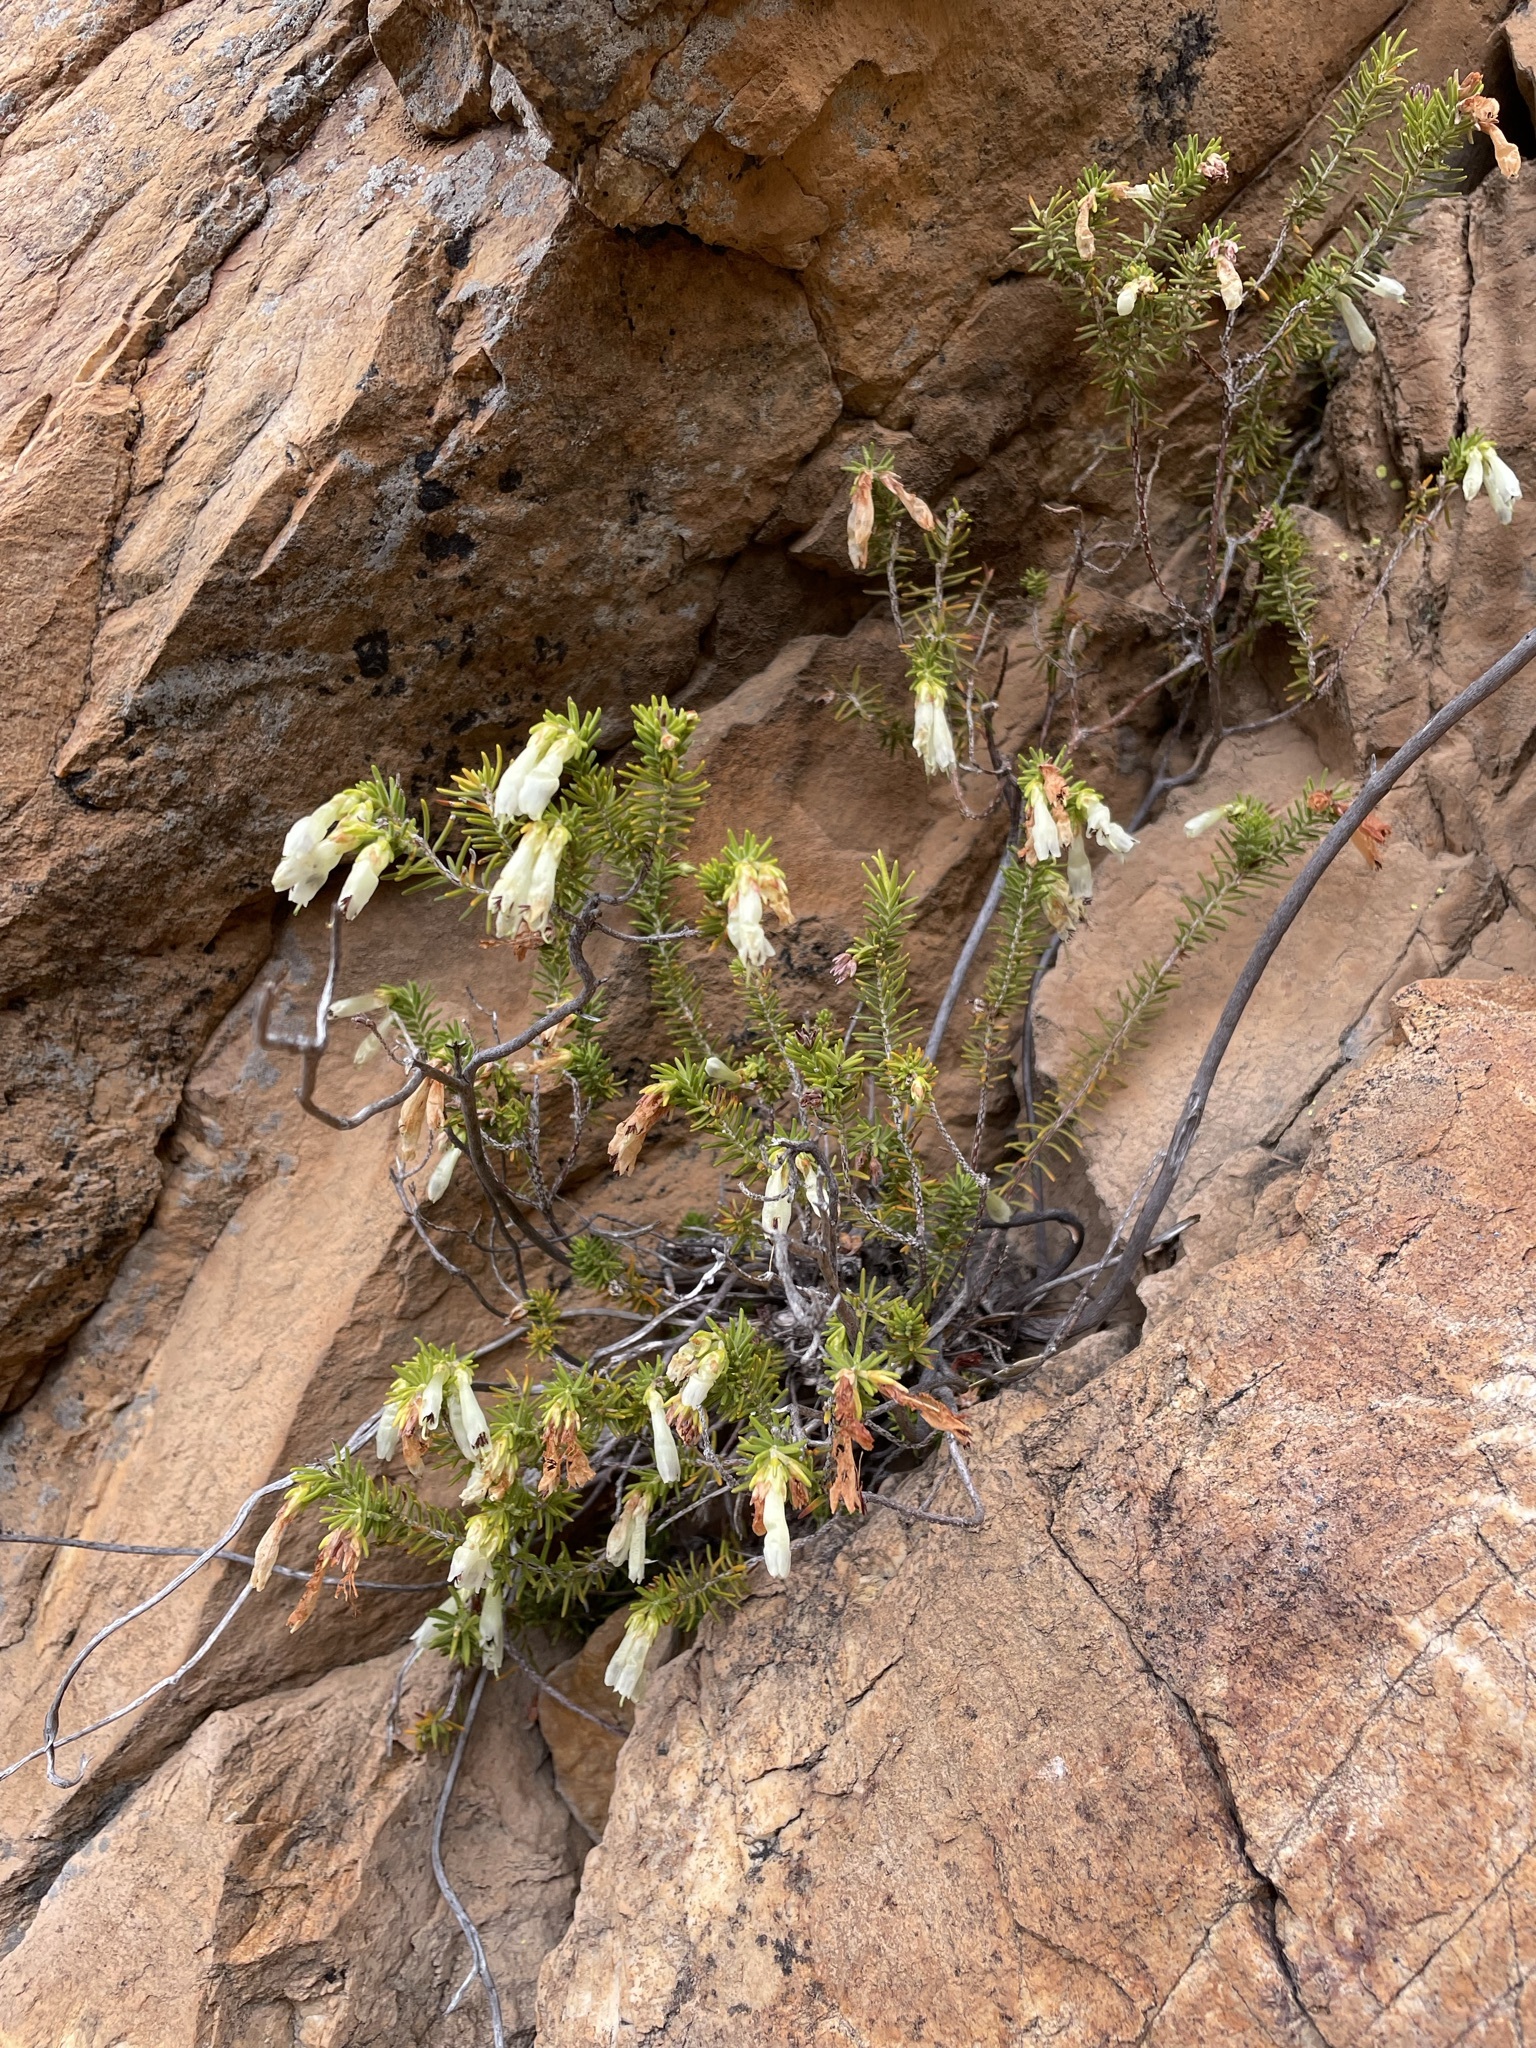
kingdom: Plantae
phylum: Tracheophyta
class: Magnoliopsida
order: Ericales
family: Ericaceae
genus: Erica
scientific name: Erica viridiflora
